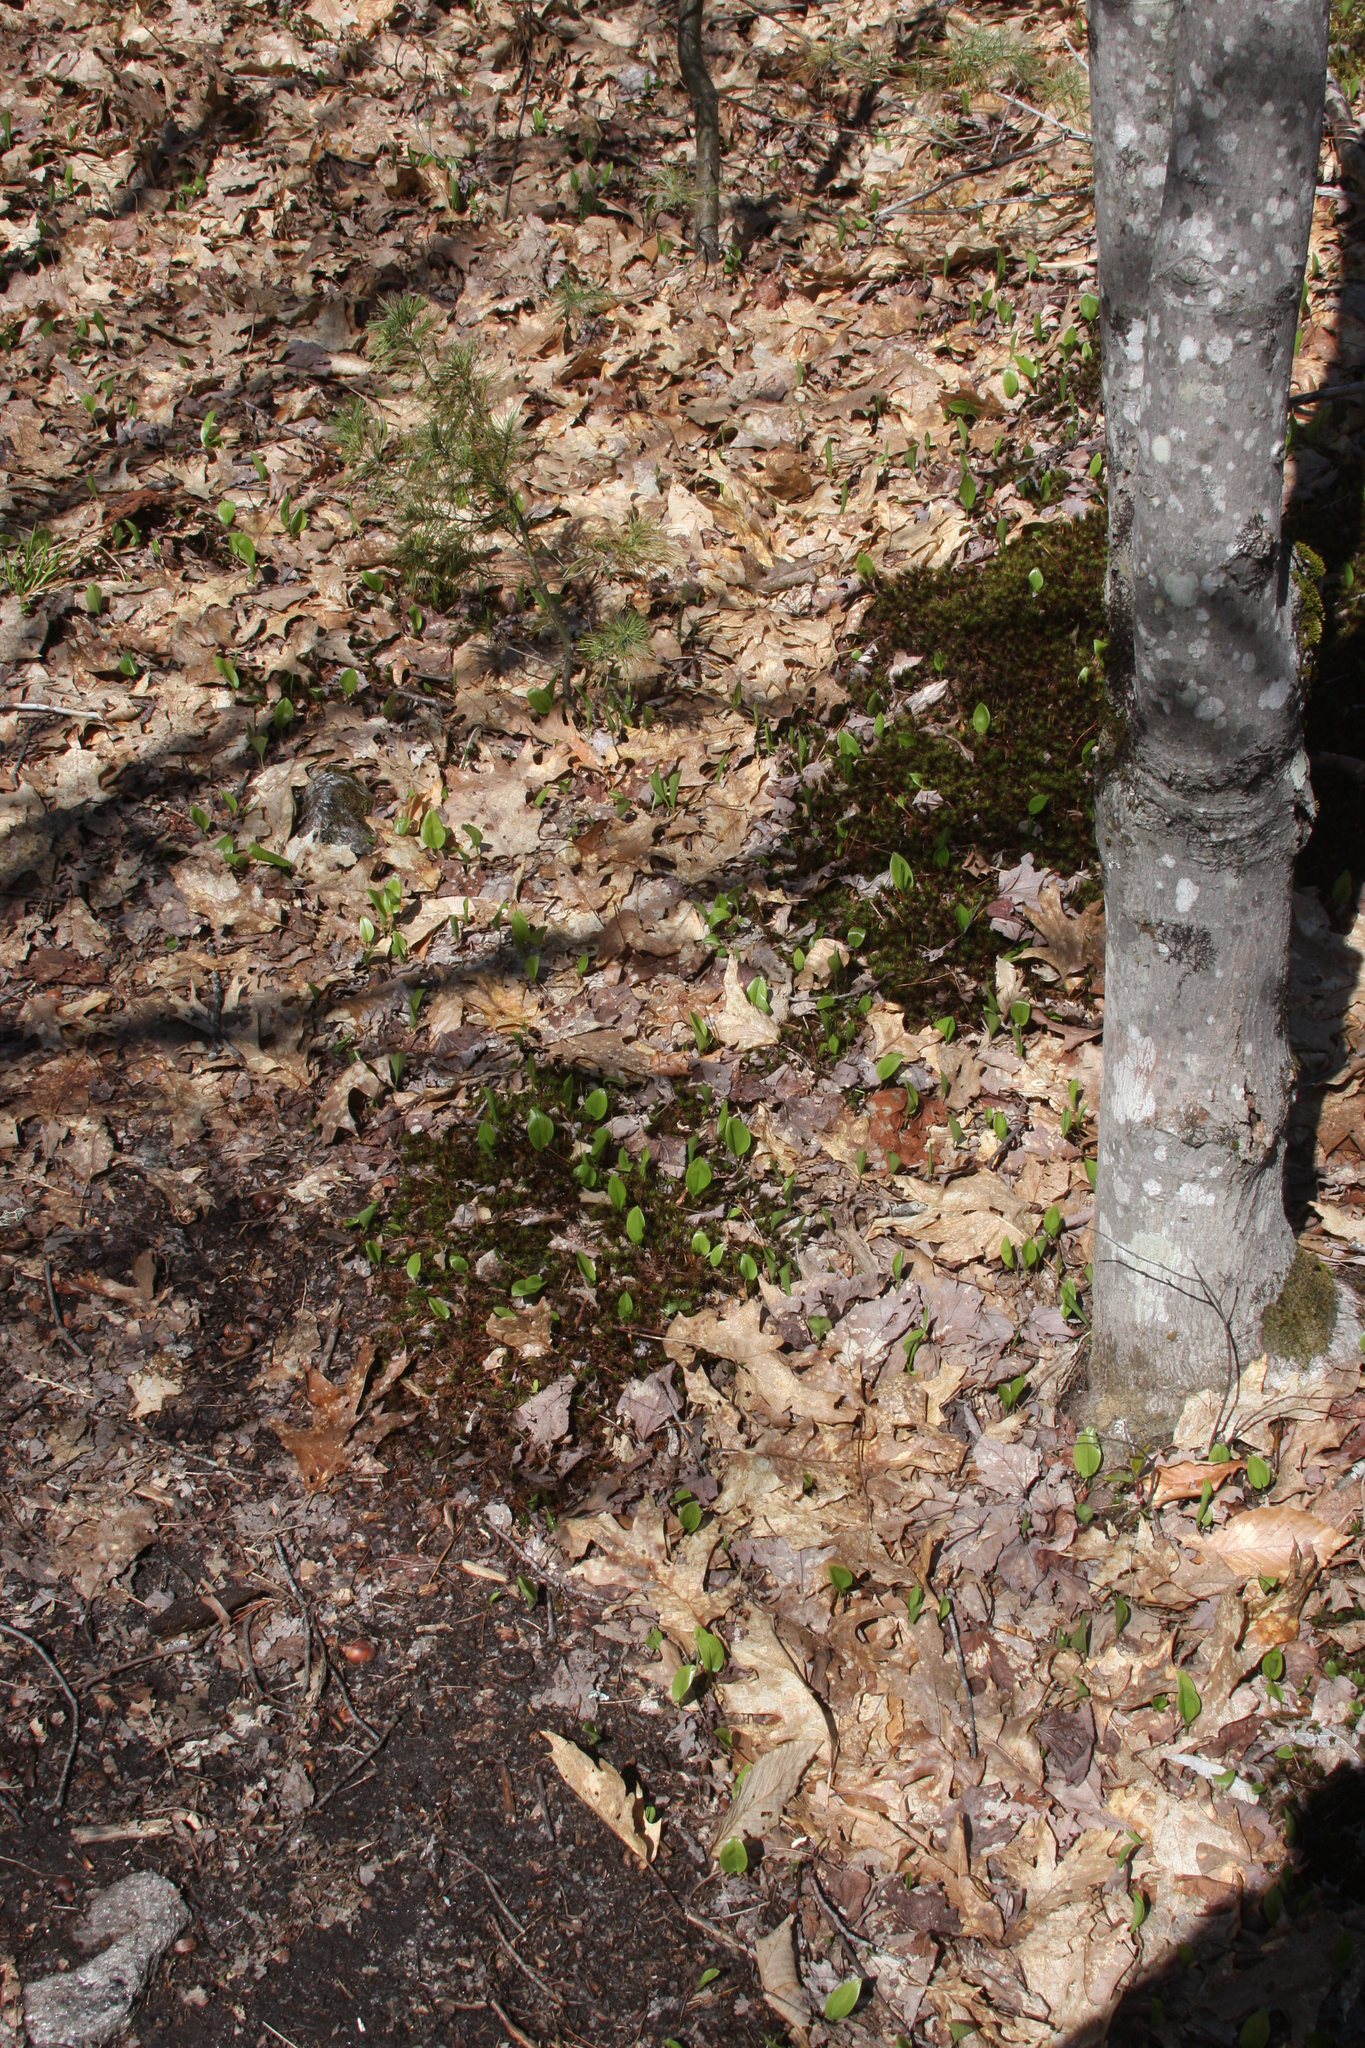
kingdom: Plantae
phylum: Tracheophyta
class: Liliopsida
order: Asparagales
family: Asparagaceae
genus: Maianthemum
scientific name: Maianthemum canadense
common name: False lily-of-the-valley
